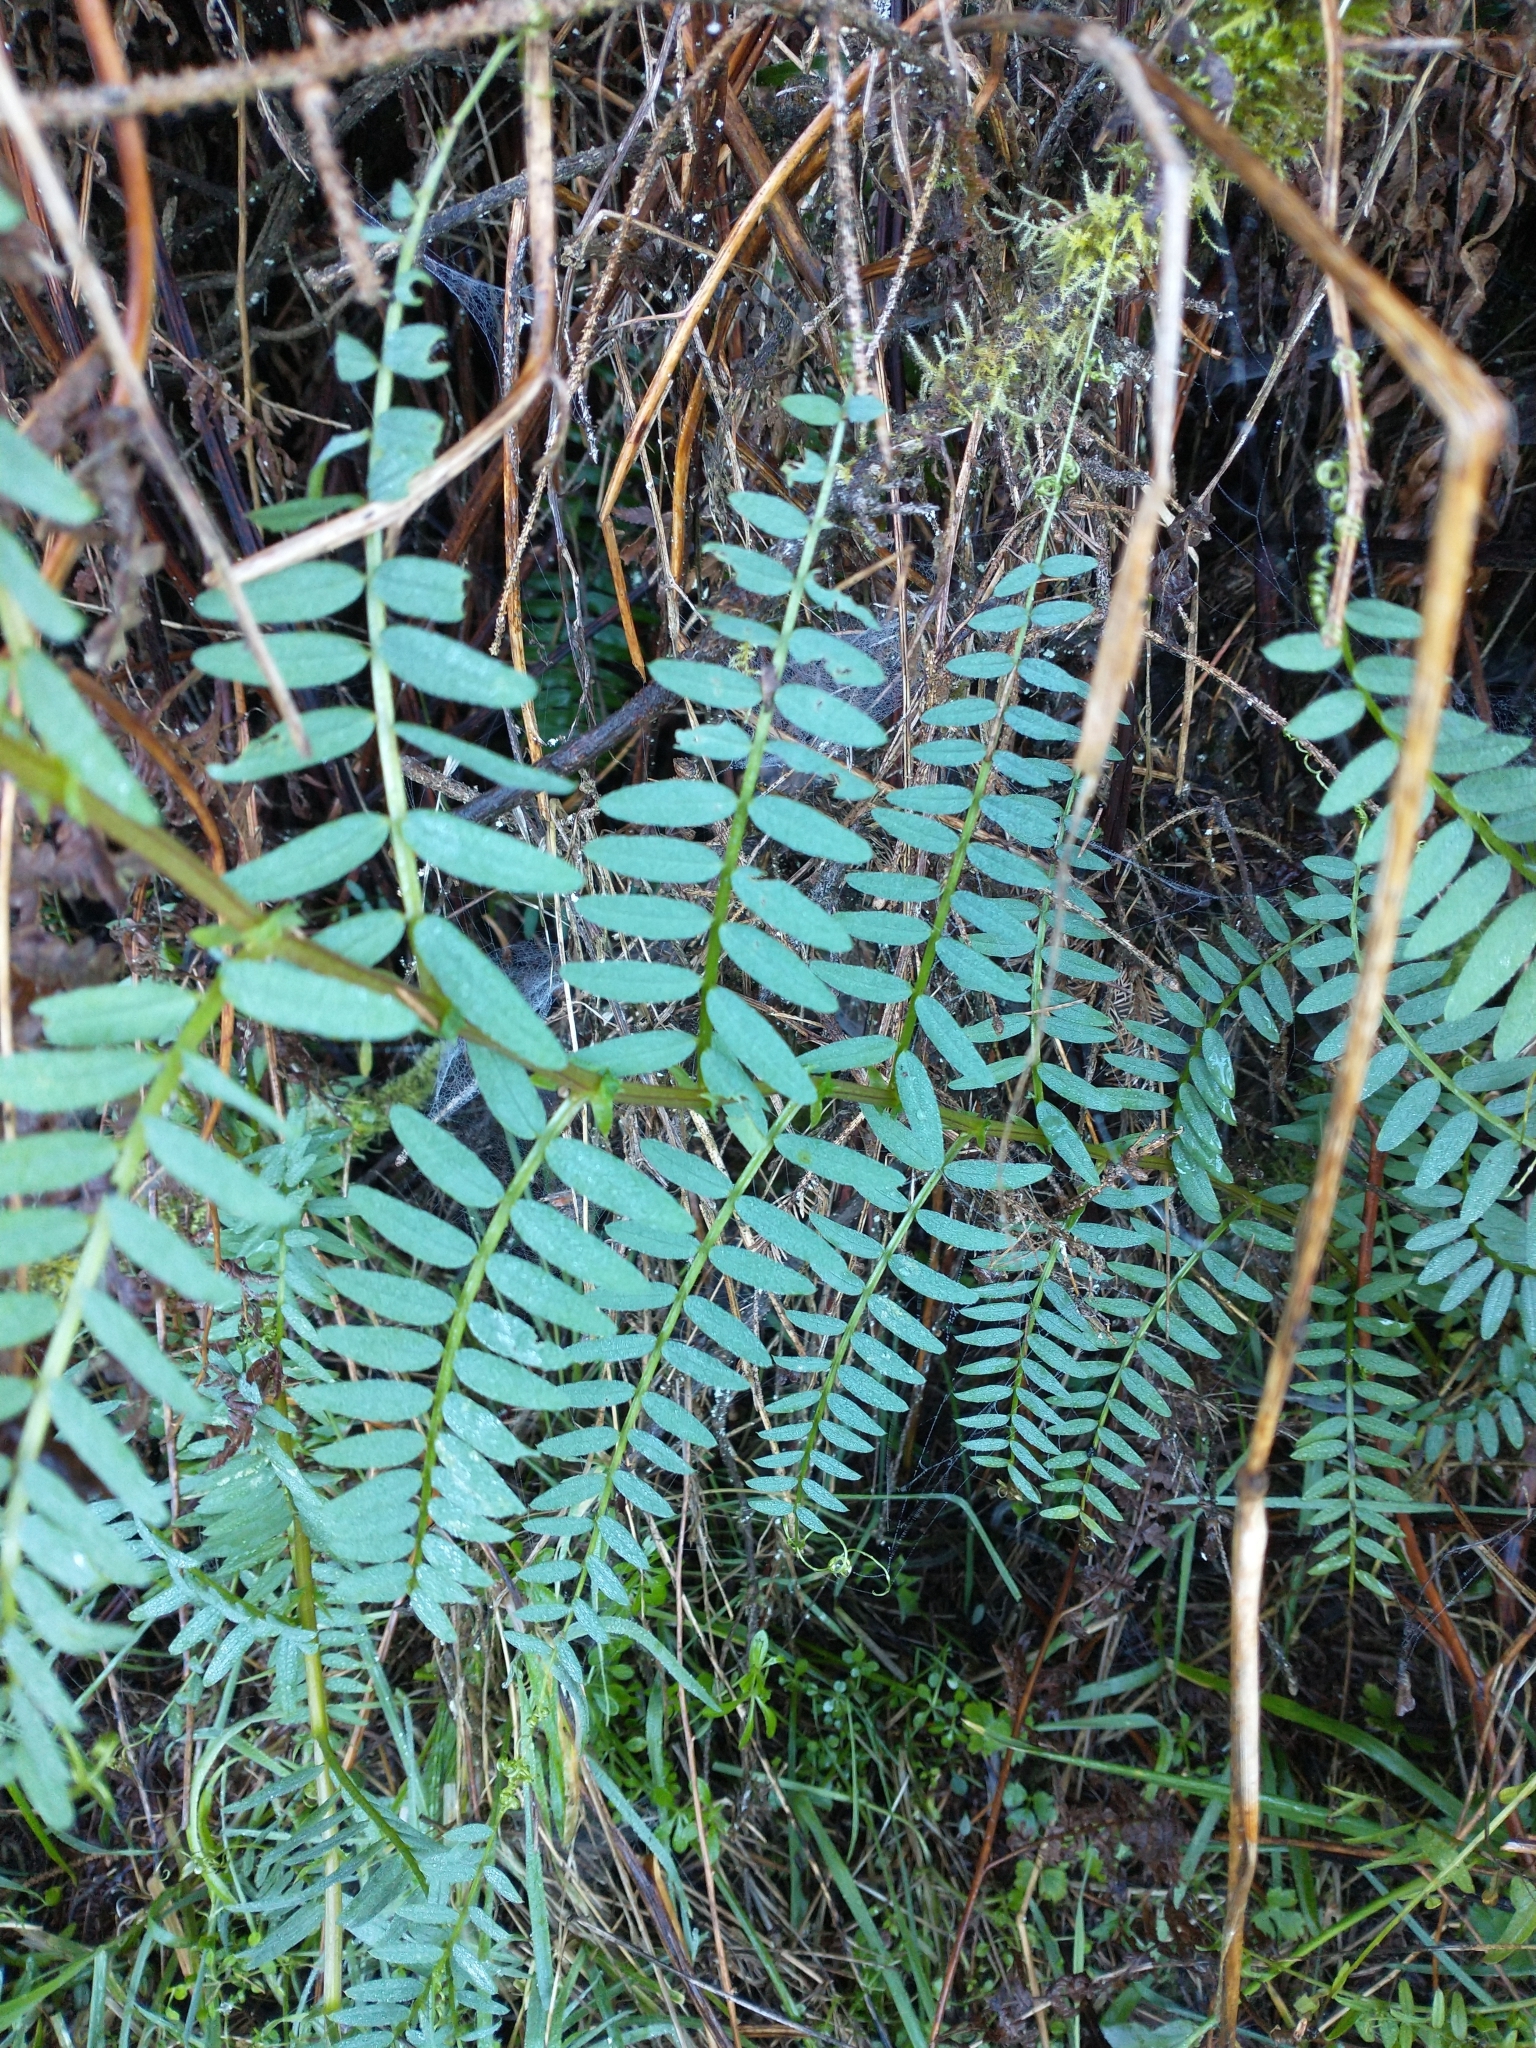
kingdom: Plantae
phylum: Tracheophyta
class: Magnoliopsida
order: Fabales
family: Fabaceae
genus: Vicia
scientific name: Vicia
